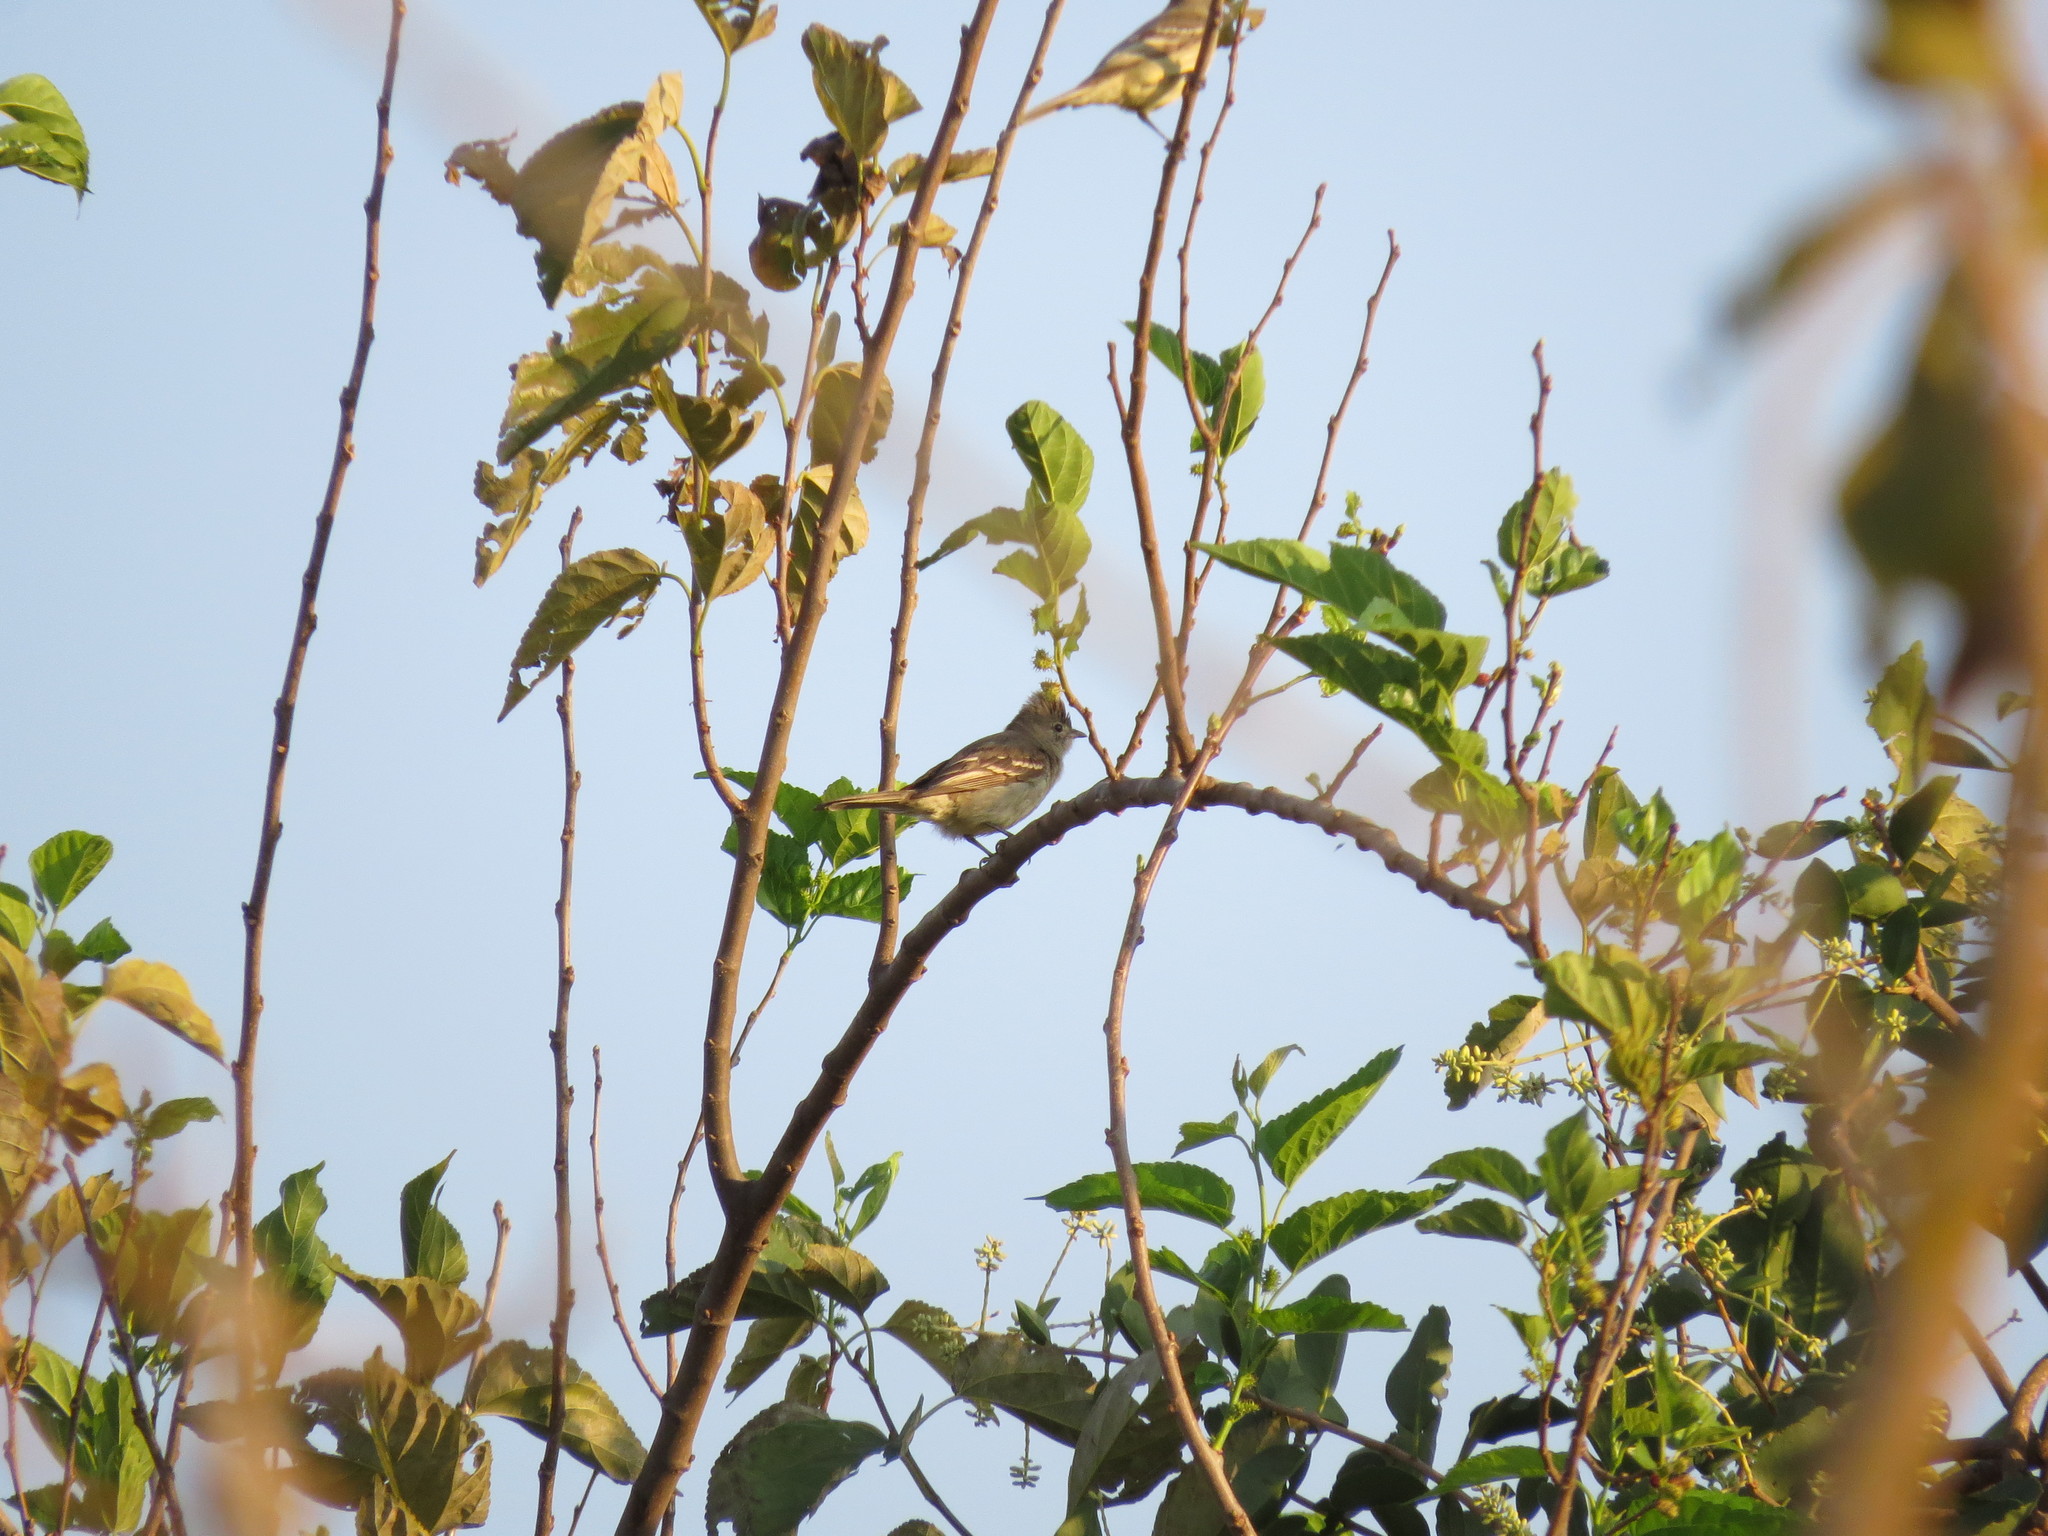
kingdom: Animalia
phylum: Chordata
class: Aves
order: Passeriformes
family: Tyrannidae
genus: Elaenia
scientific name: Elaenia flavogaster
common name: Yellow-bellied elaenia
